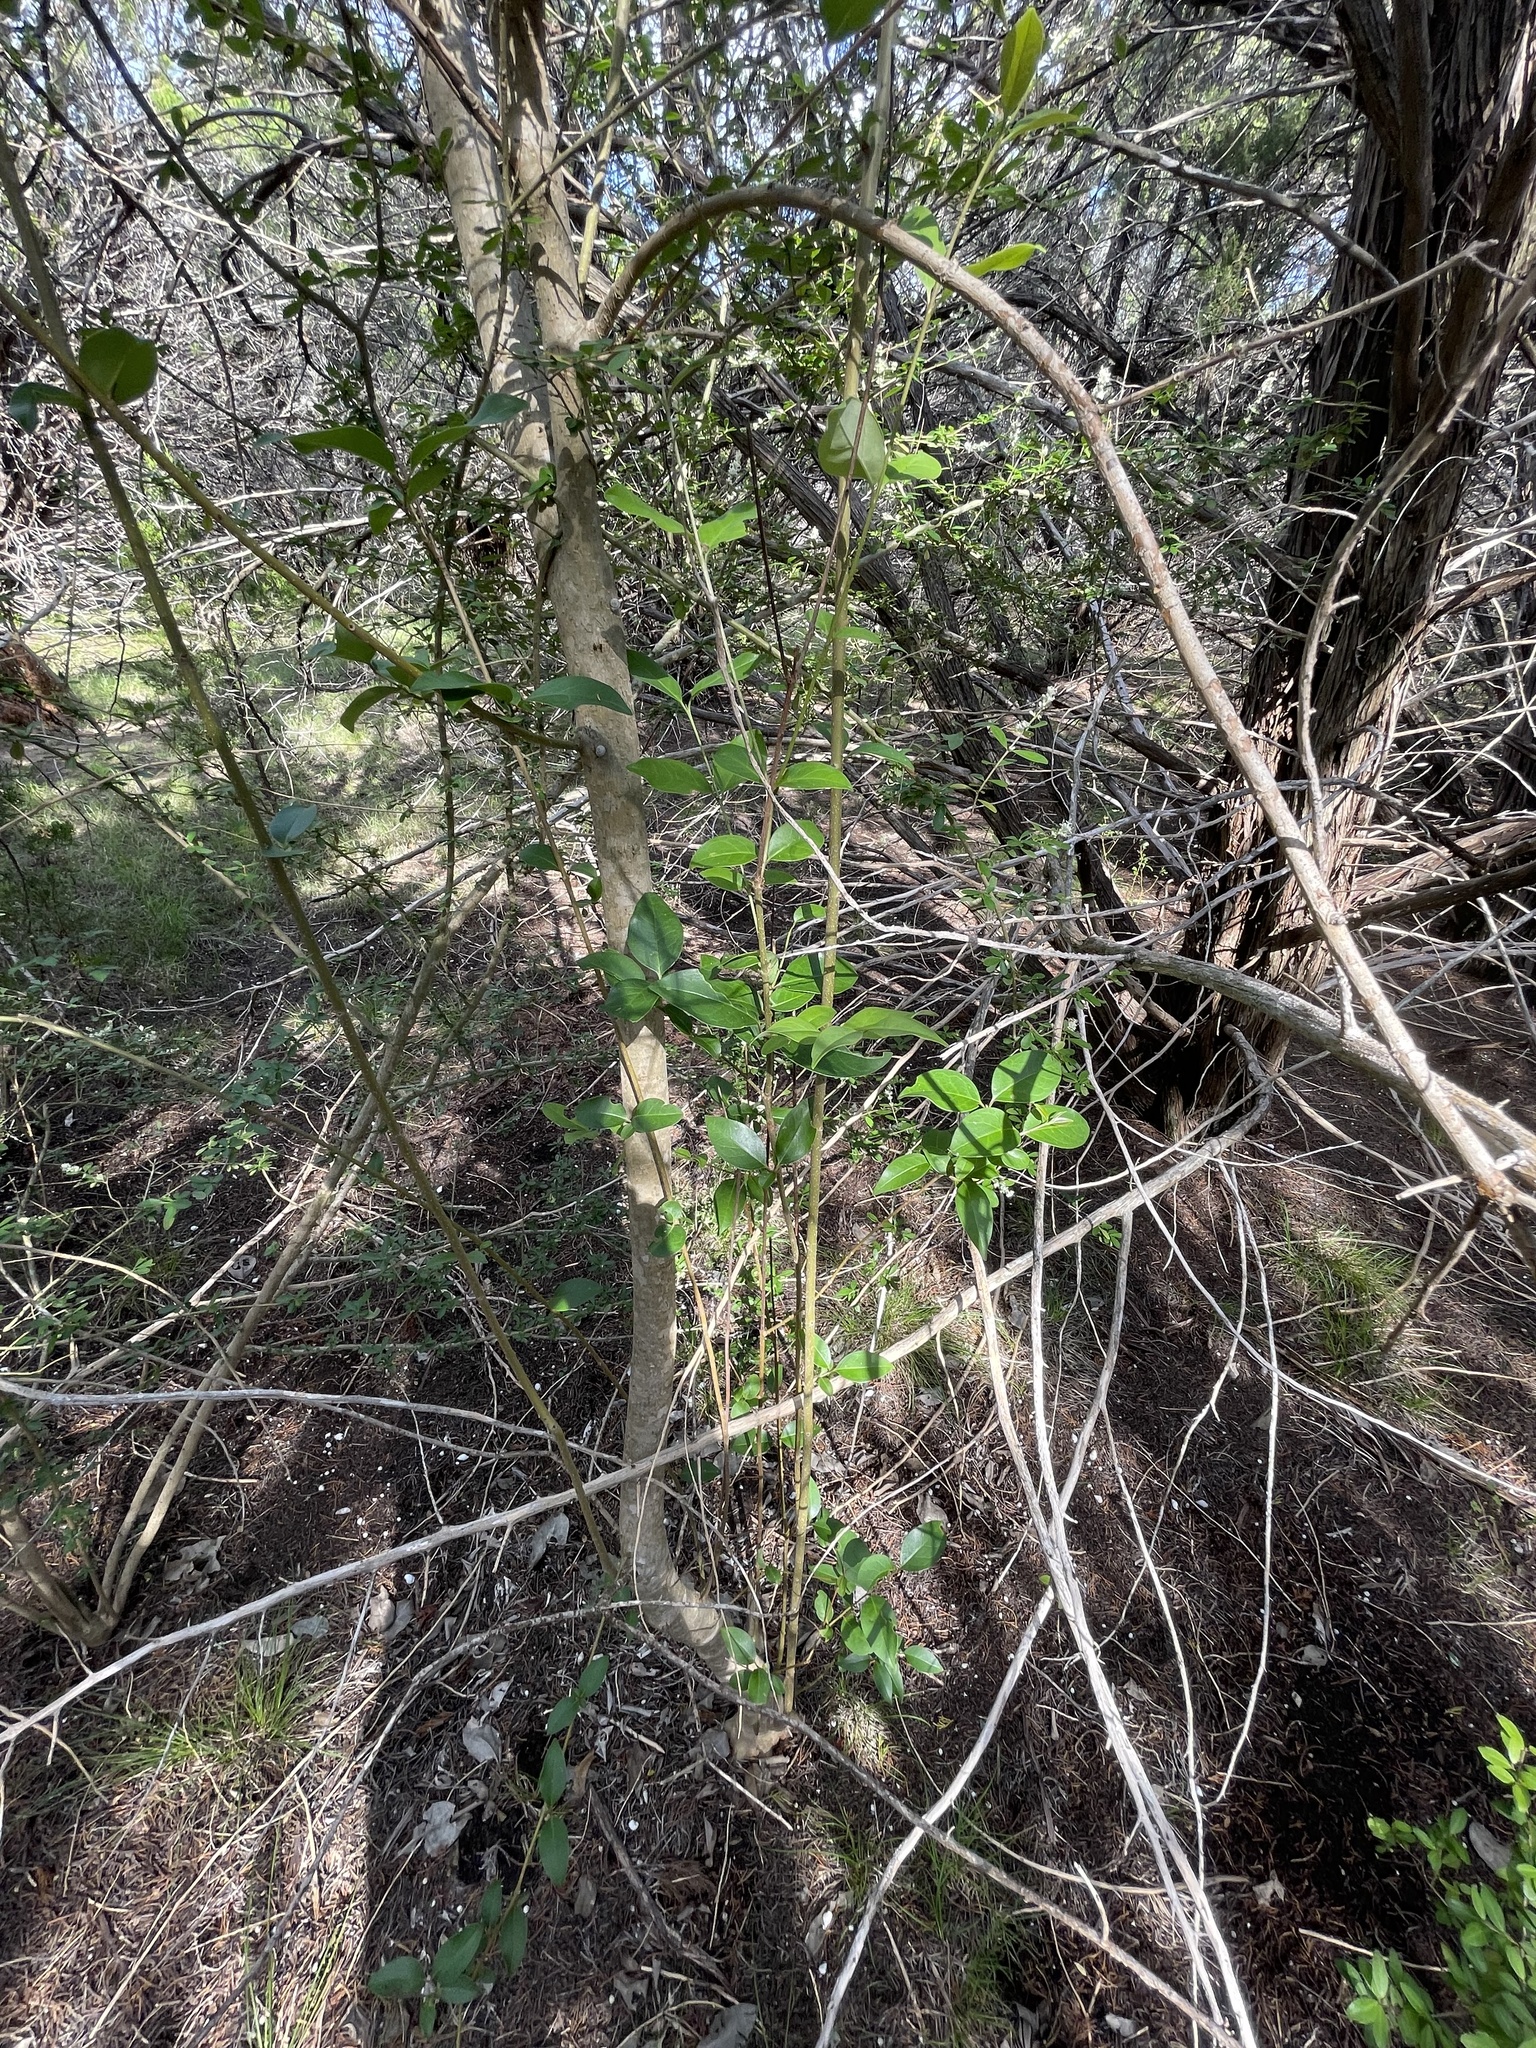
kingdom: Plantae
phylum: Tracheophyta
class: Magnoliopsida
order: Lamiales
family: Oleaceae
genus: Ligustrum
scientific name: Ligustrum lucidum
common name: Glossy privet
